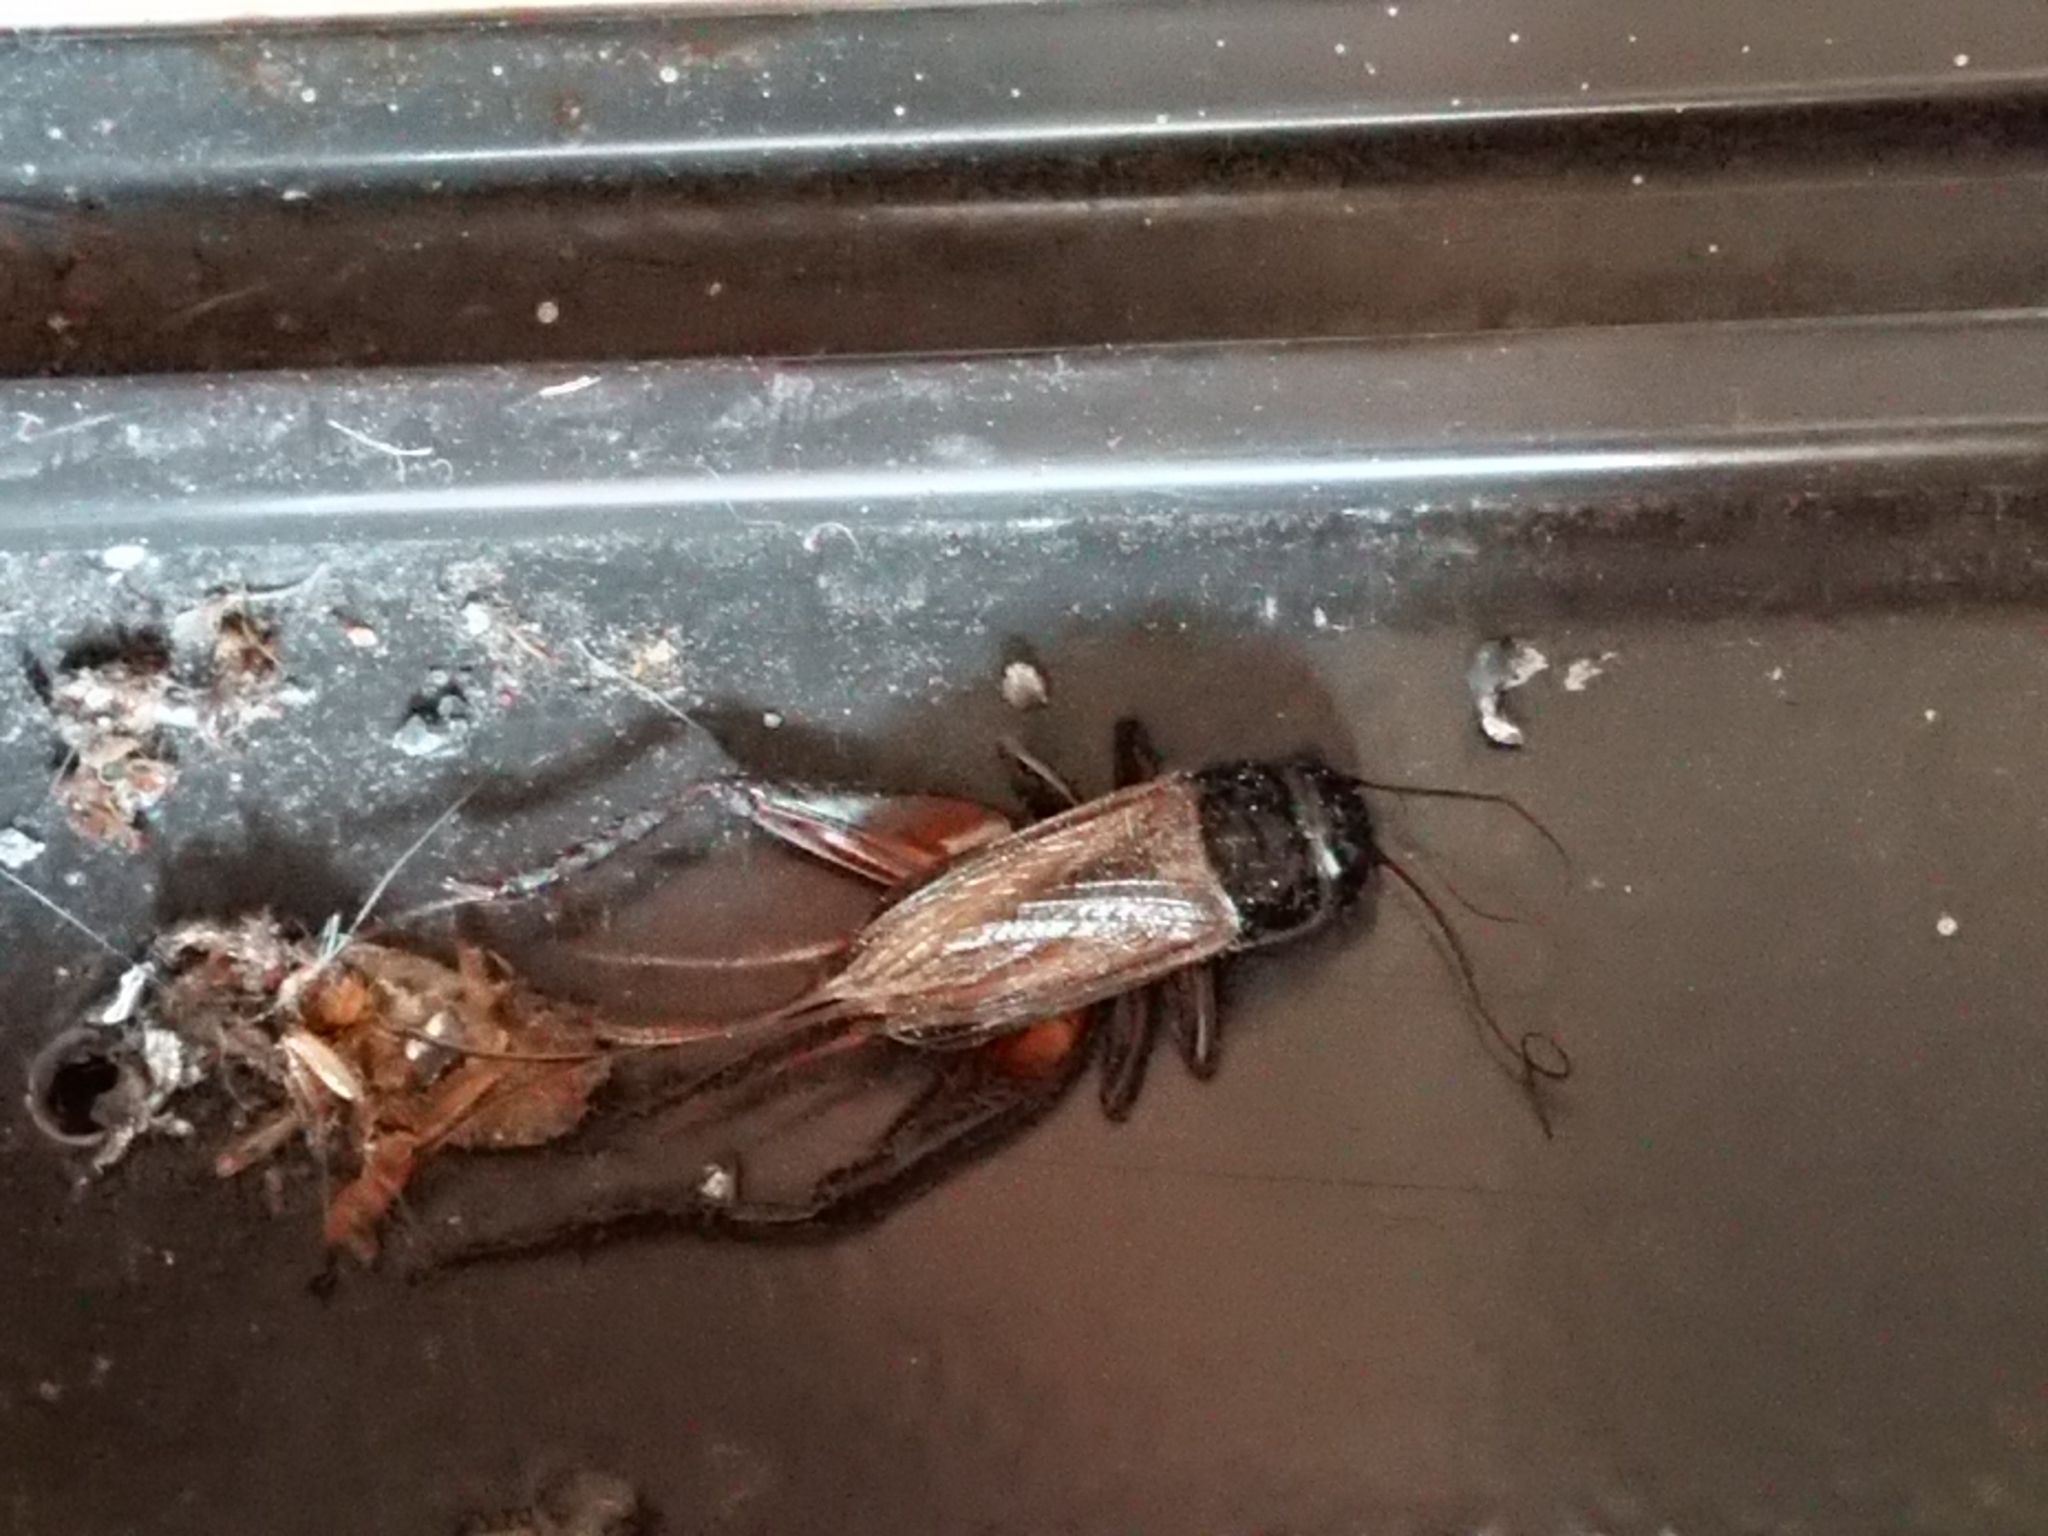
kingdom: Animalia
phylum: Arthropoda
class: Insecta
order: Orthoptera
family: Gryllidae
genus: Teleogryllus
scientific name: Teleogryllus commodus
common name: Black field cricket
